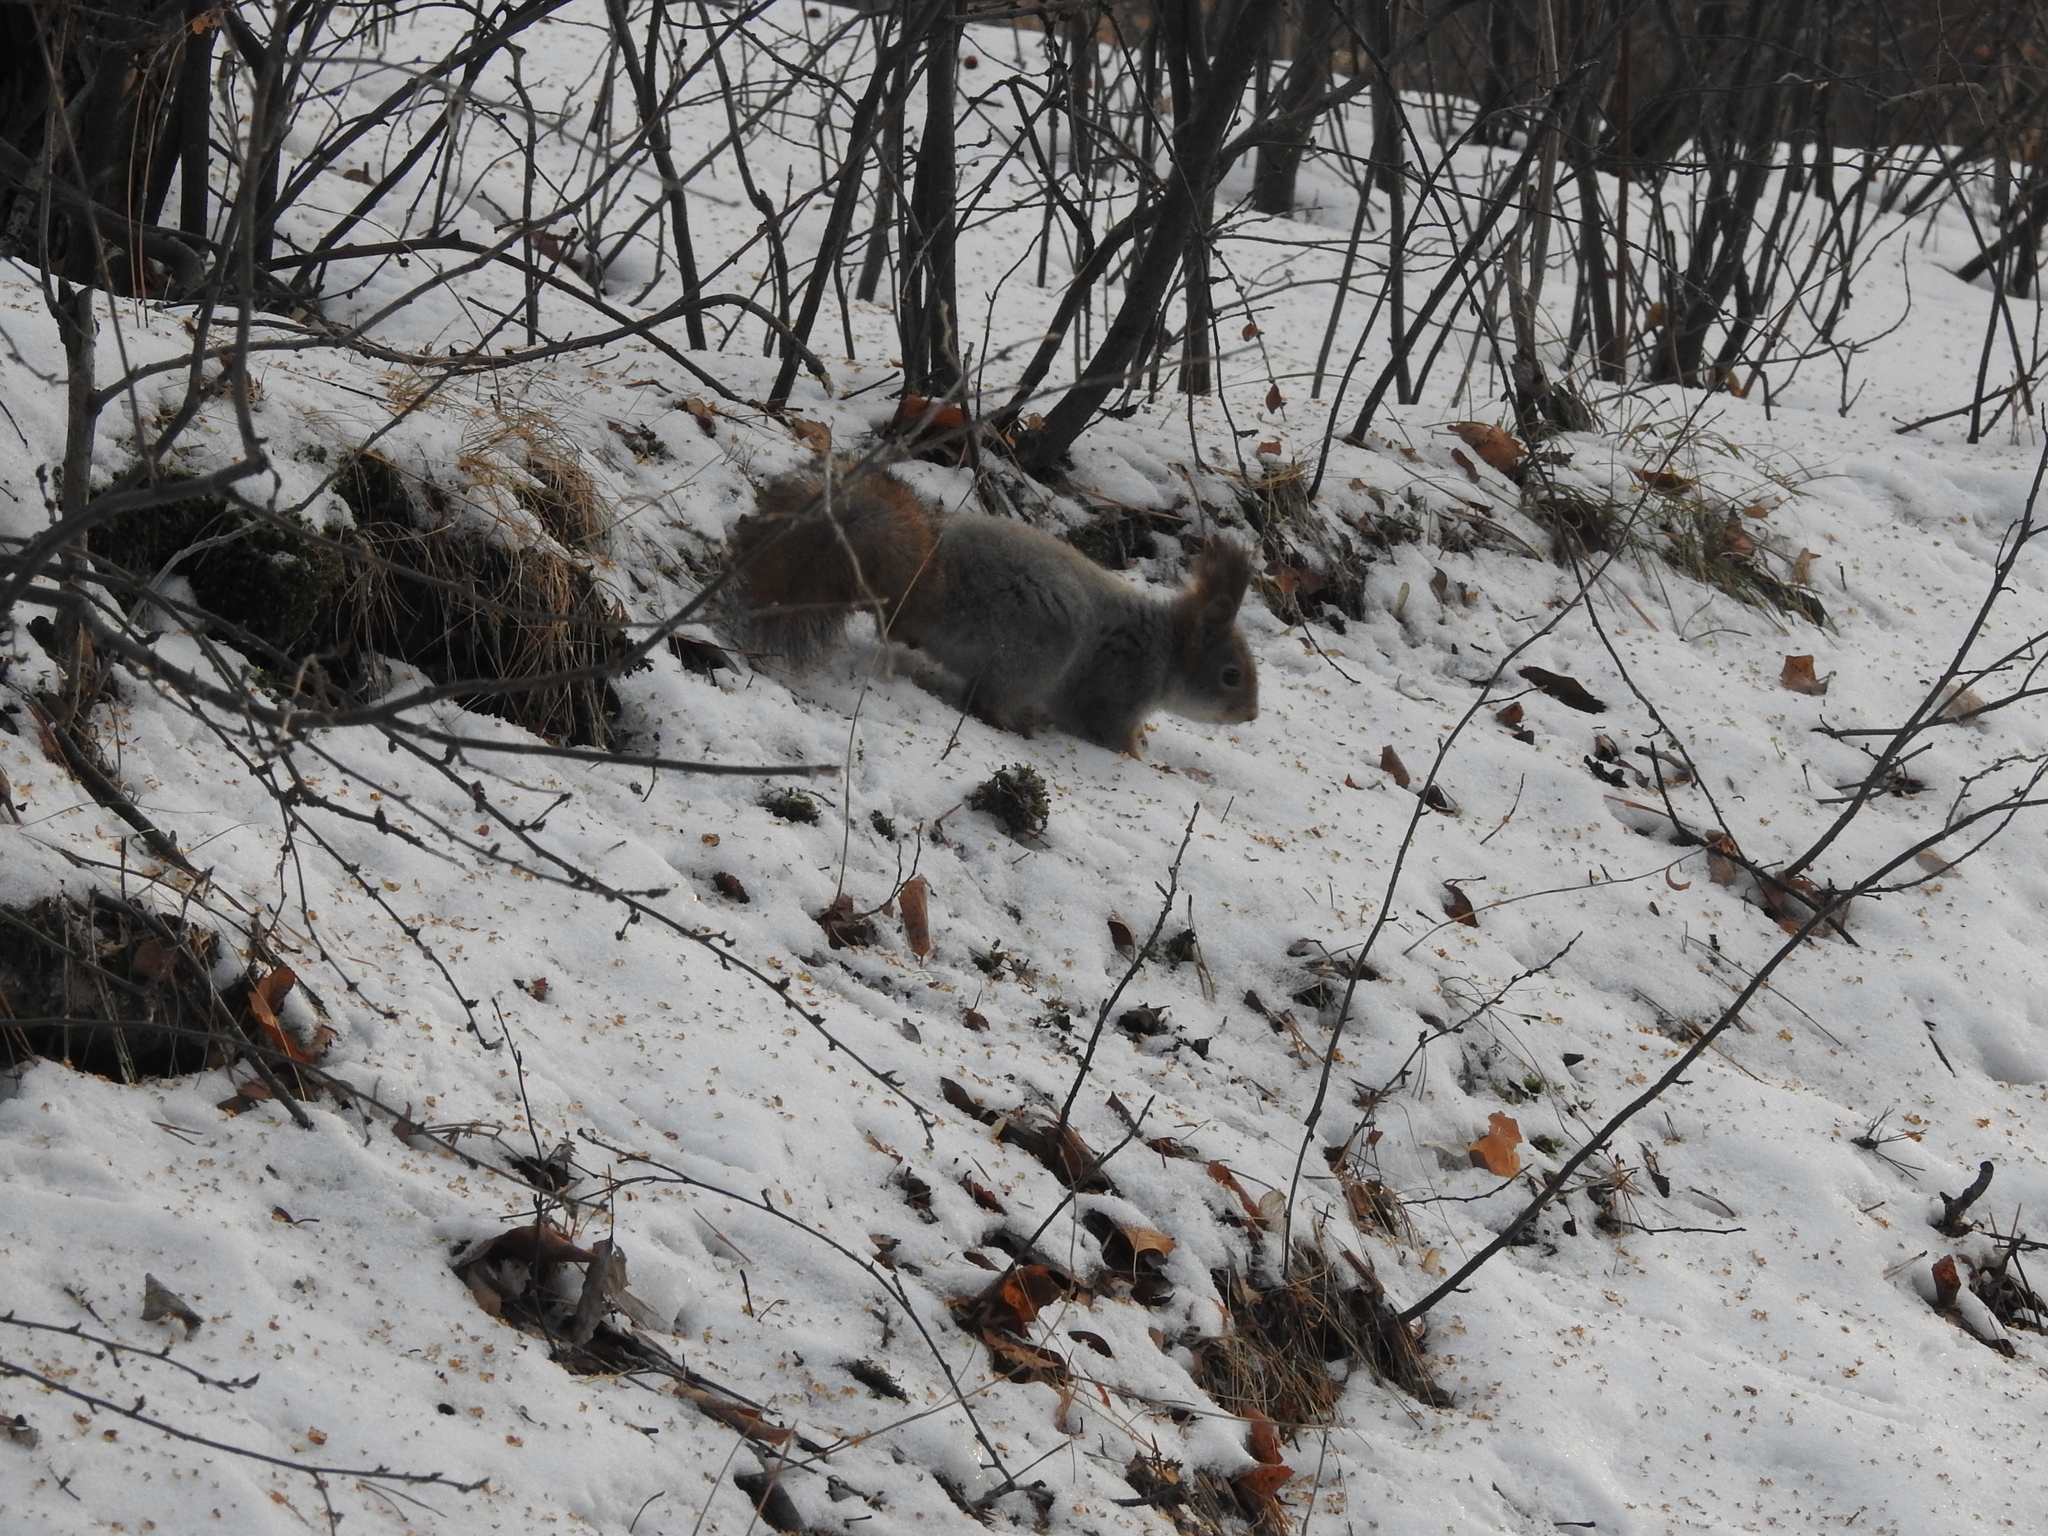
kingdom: Animalia
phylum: Chordata
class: Mammalia
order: Rodentia
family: Sciuridae
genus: Sciurus
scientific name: Sciurus vulgaris
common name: Eurasian red squirrel
